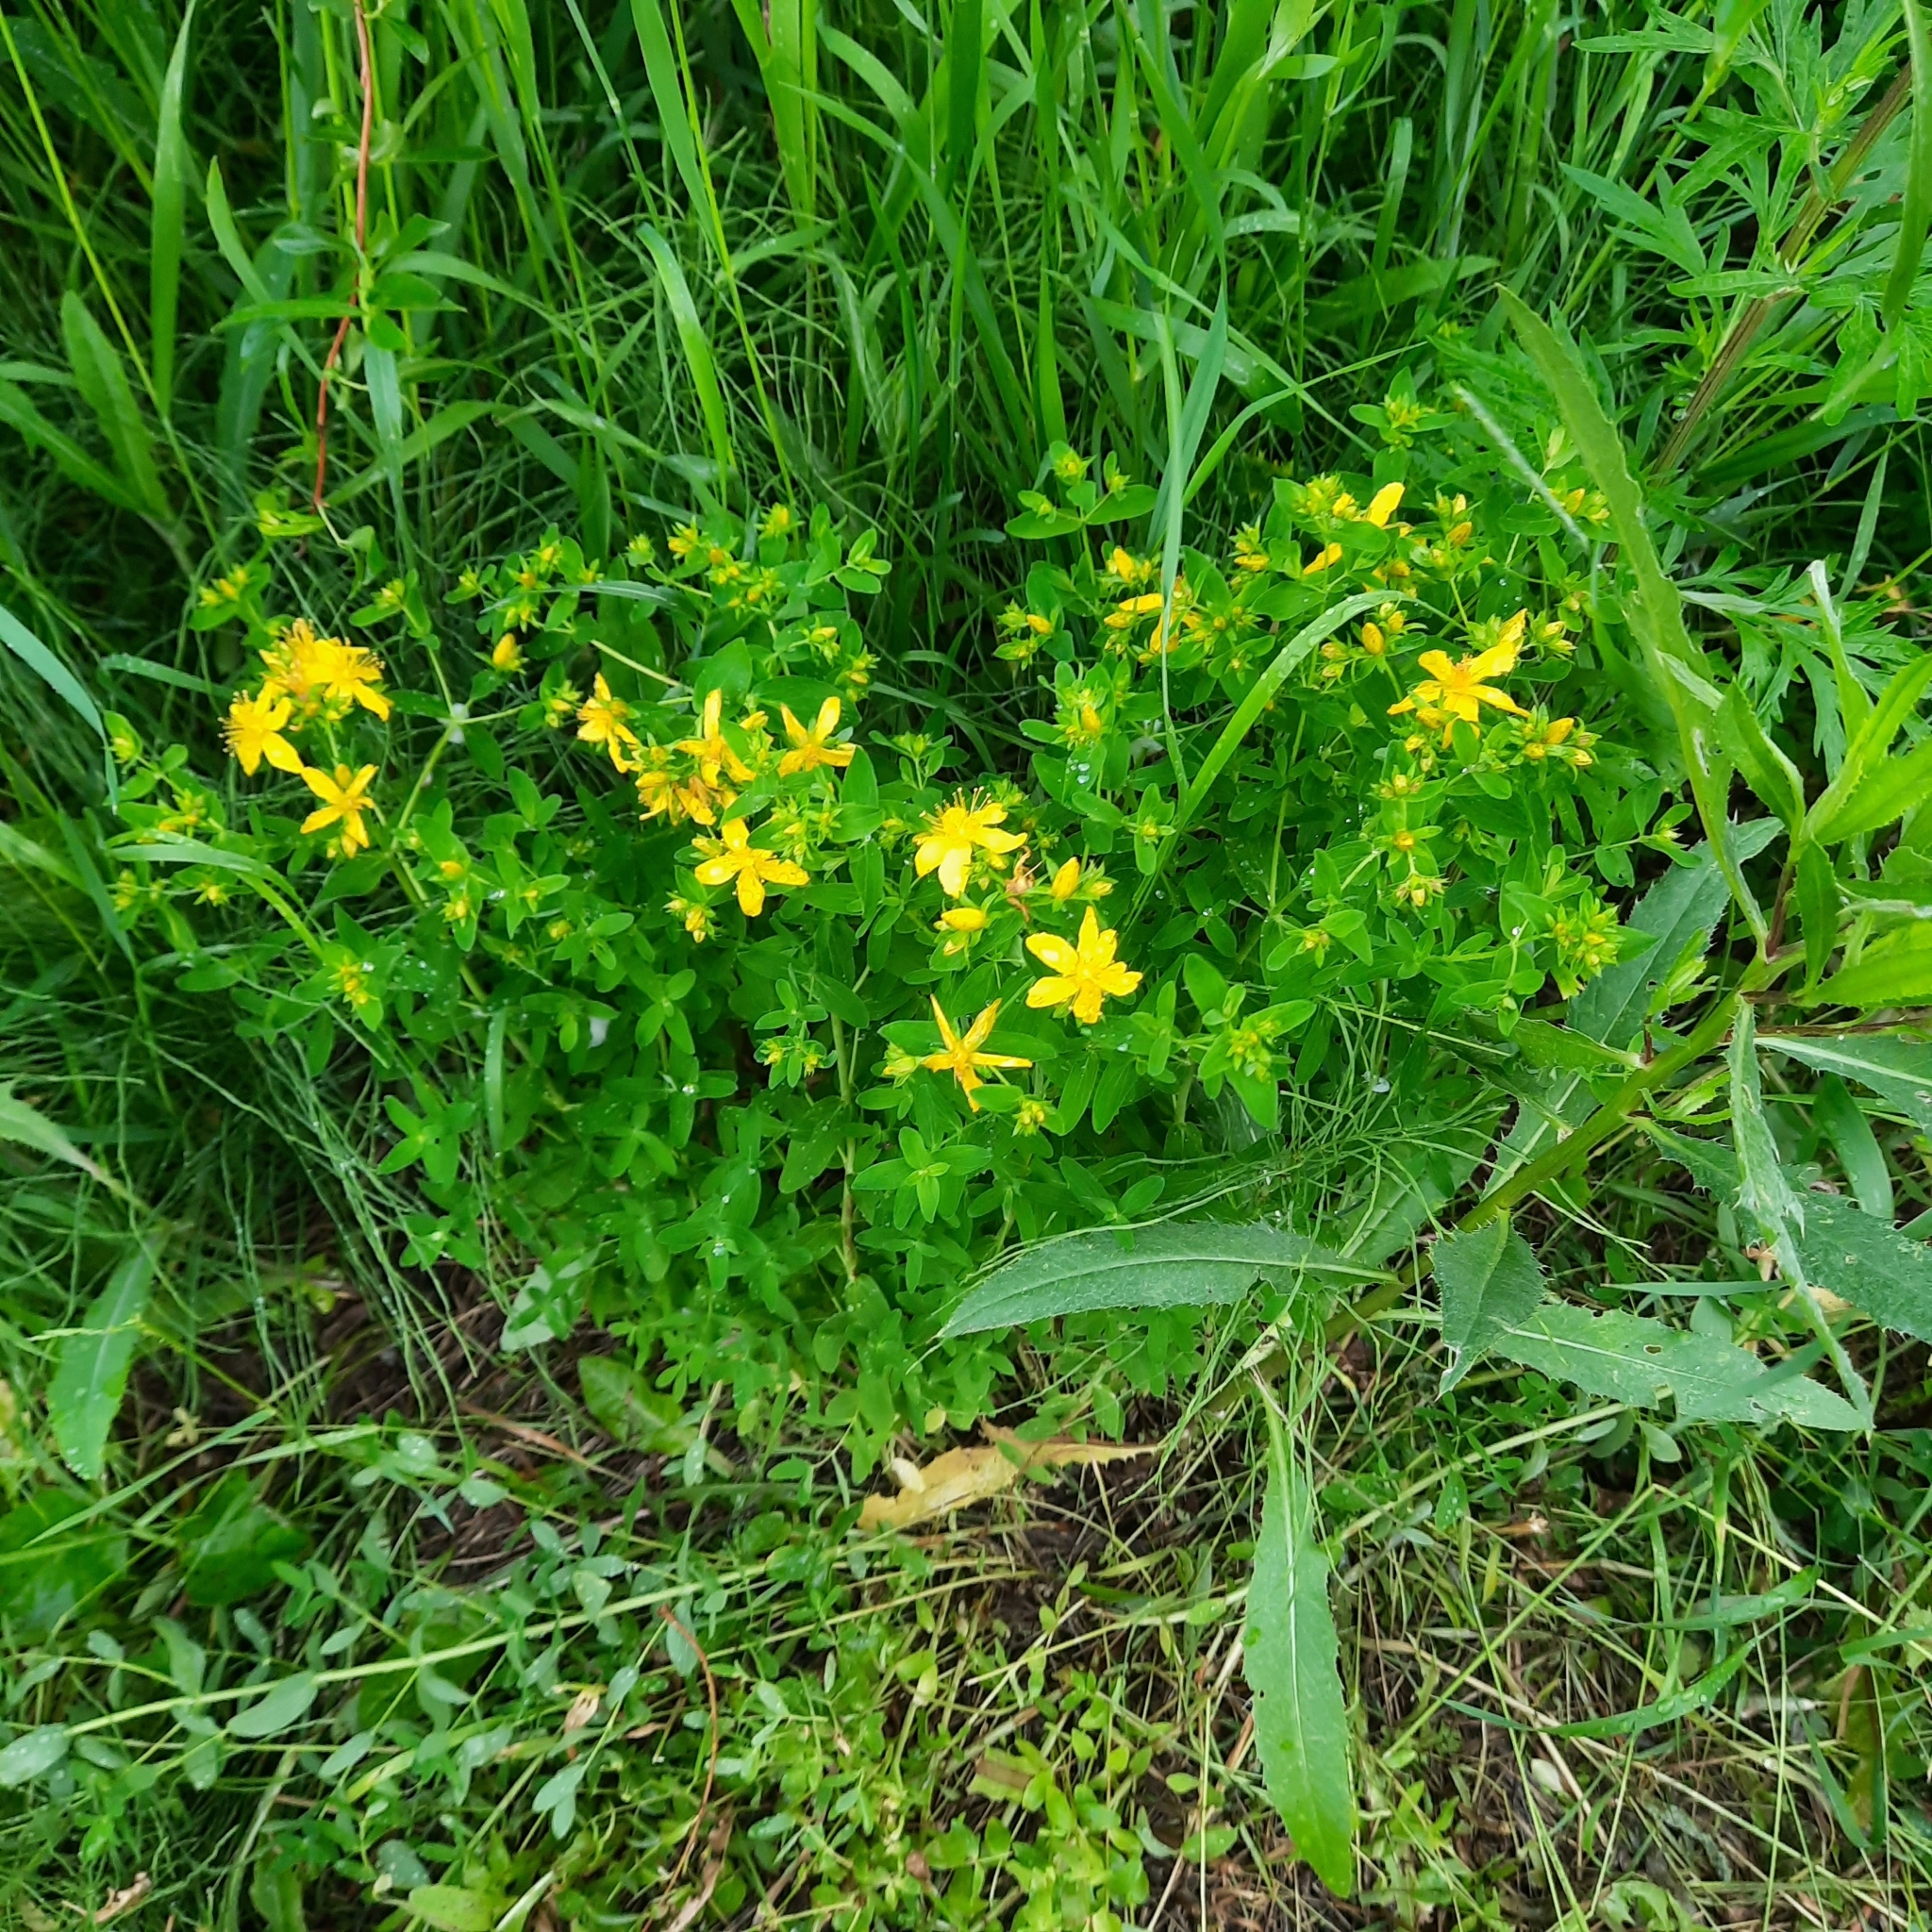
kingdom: Plantae
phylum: Tracheophyta
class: Magnoliopsida
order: Malpighiales
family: Hypericaceae
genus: Hypericum
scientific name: Hypericum perforatum
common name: Common st. johnswort
